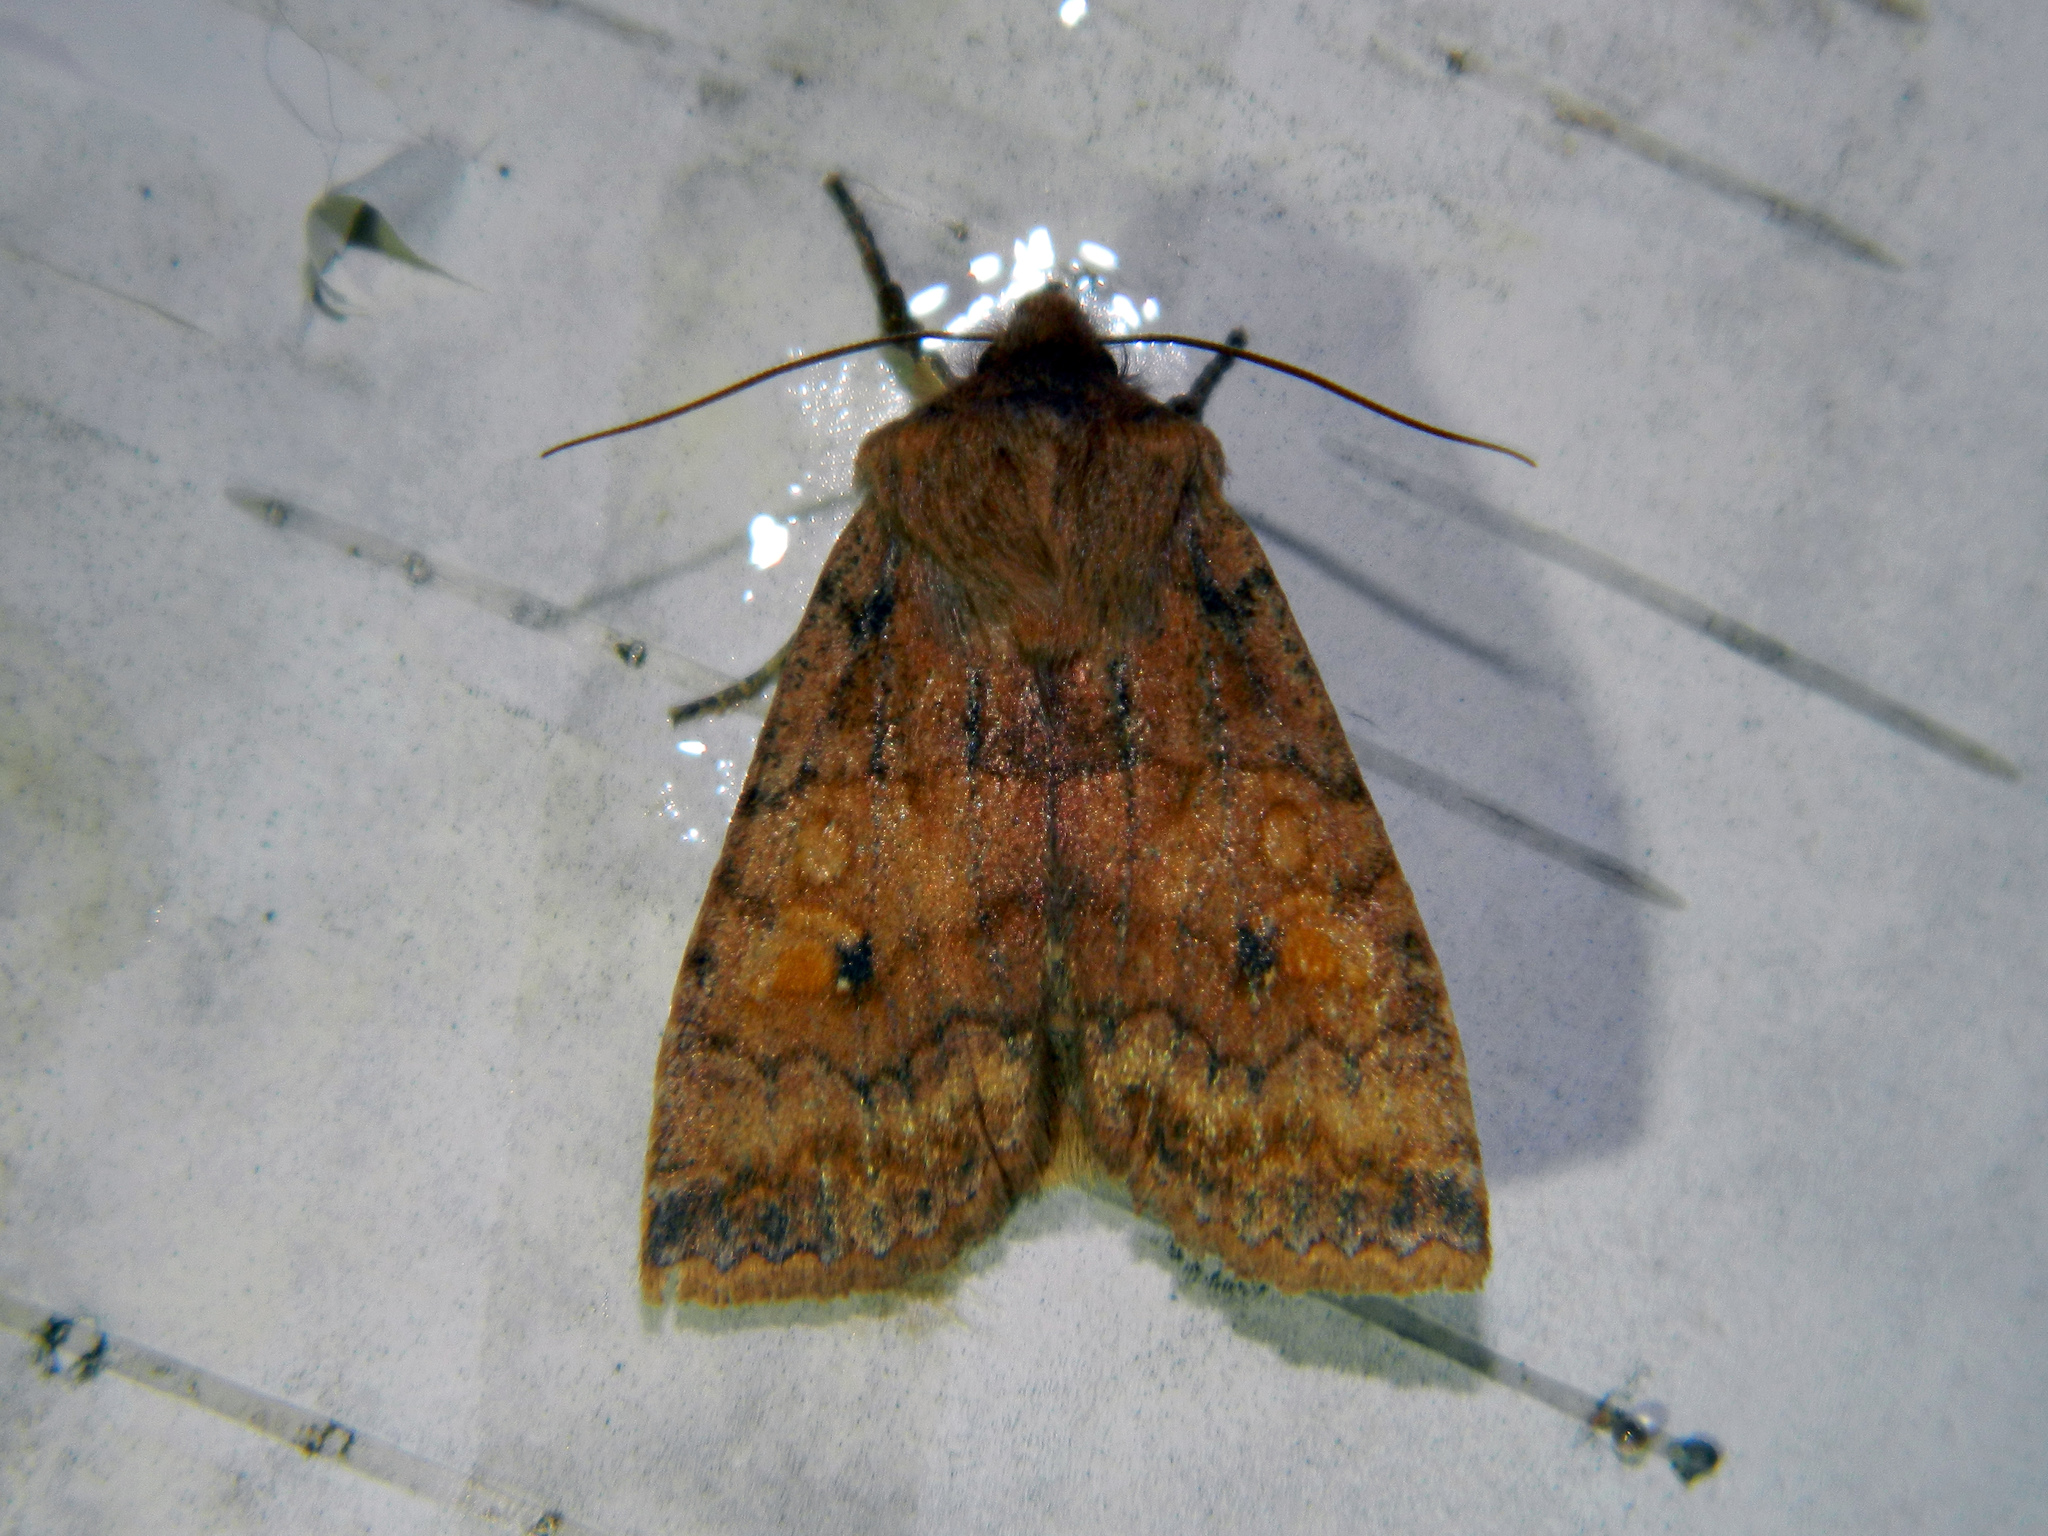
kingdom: Animalia
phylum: Arthropoda
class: Insecta
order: Lepidoptera
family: Noctuidae
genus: Eupsilia
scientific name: Eupsilia tristigmata
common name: Three-spotted sallow
